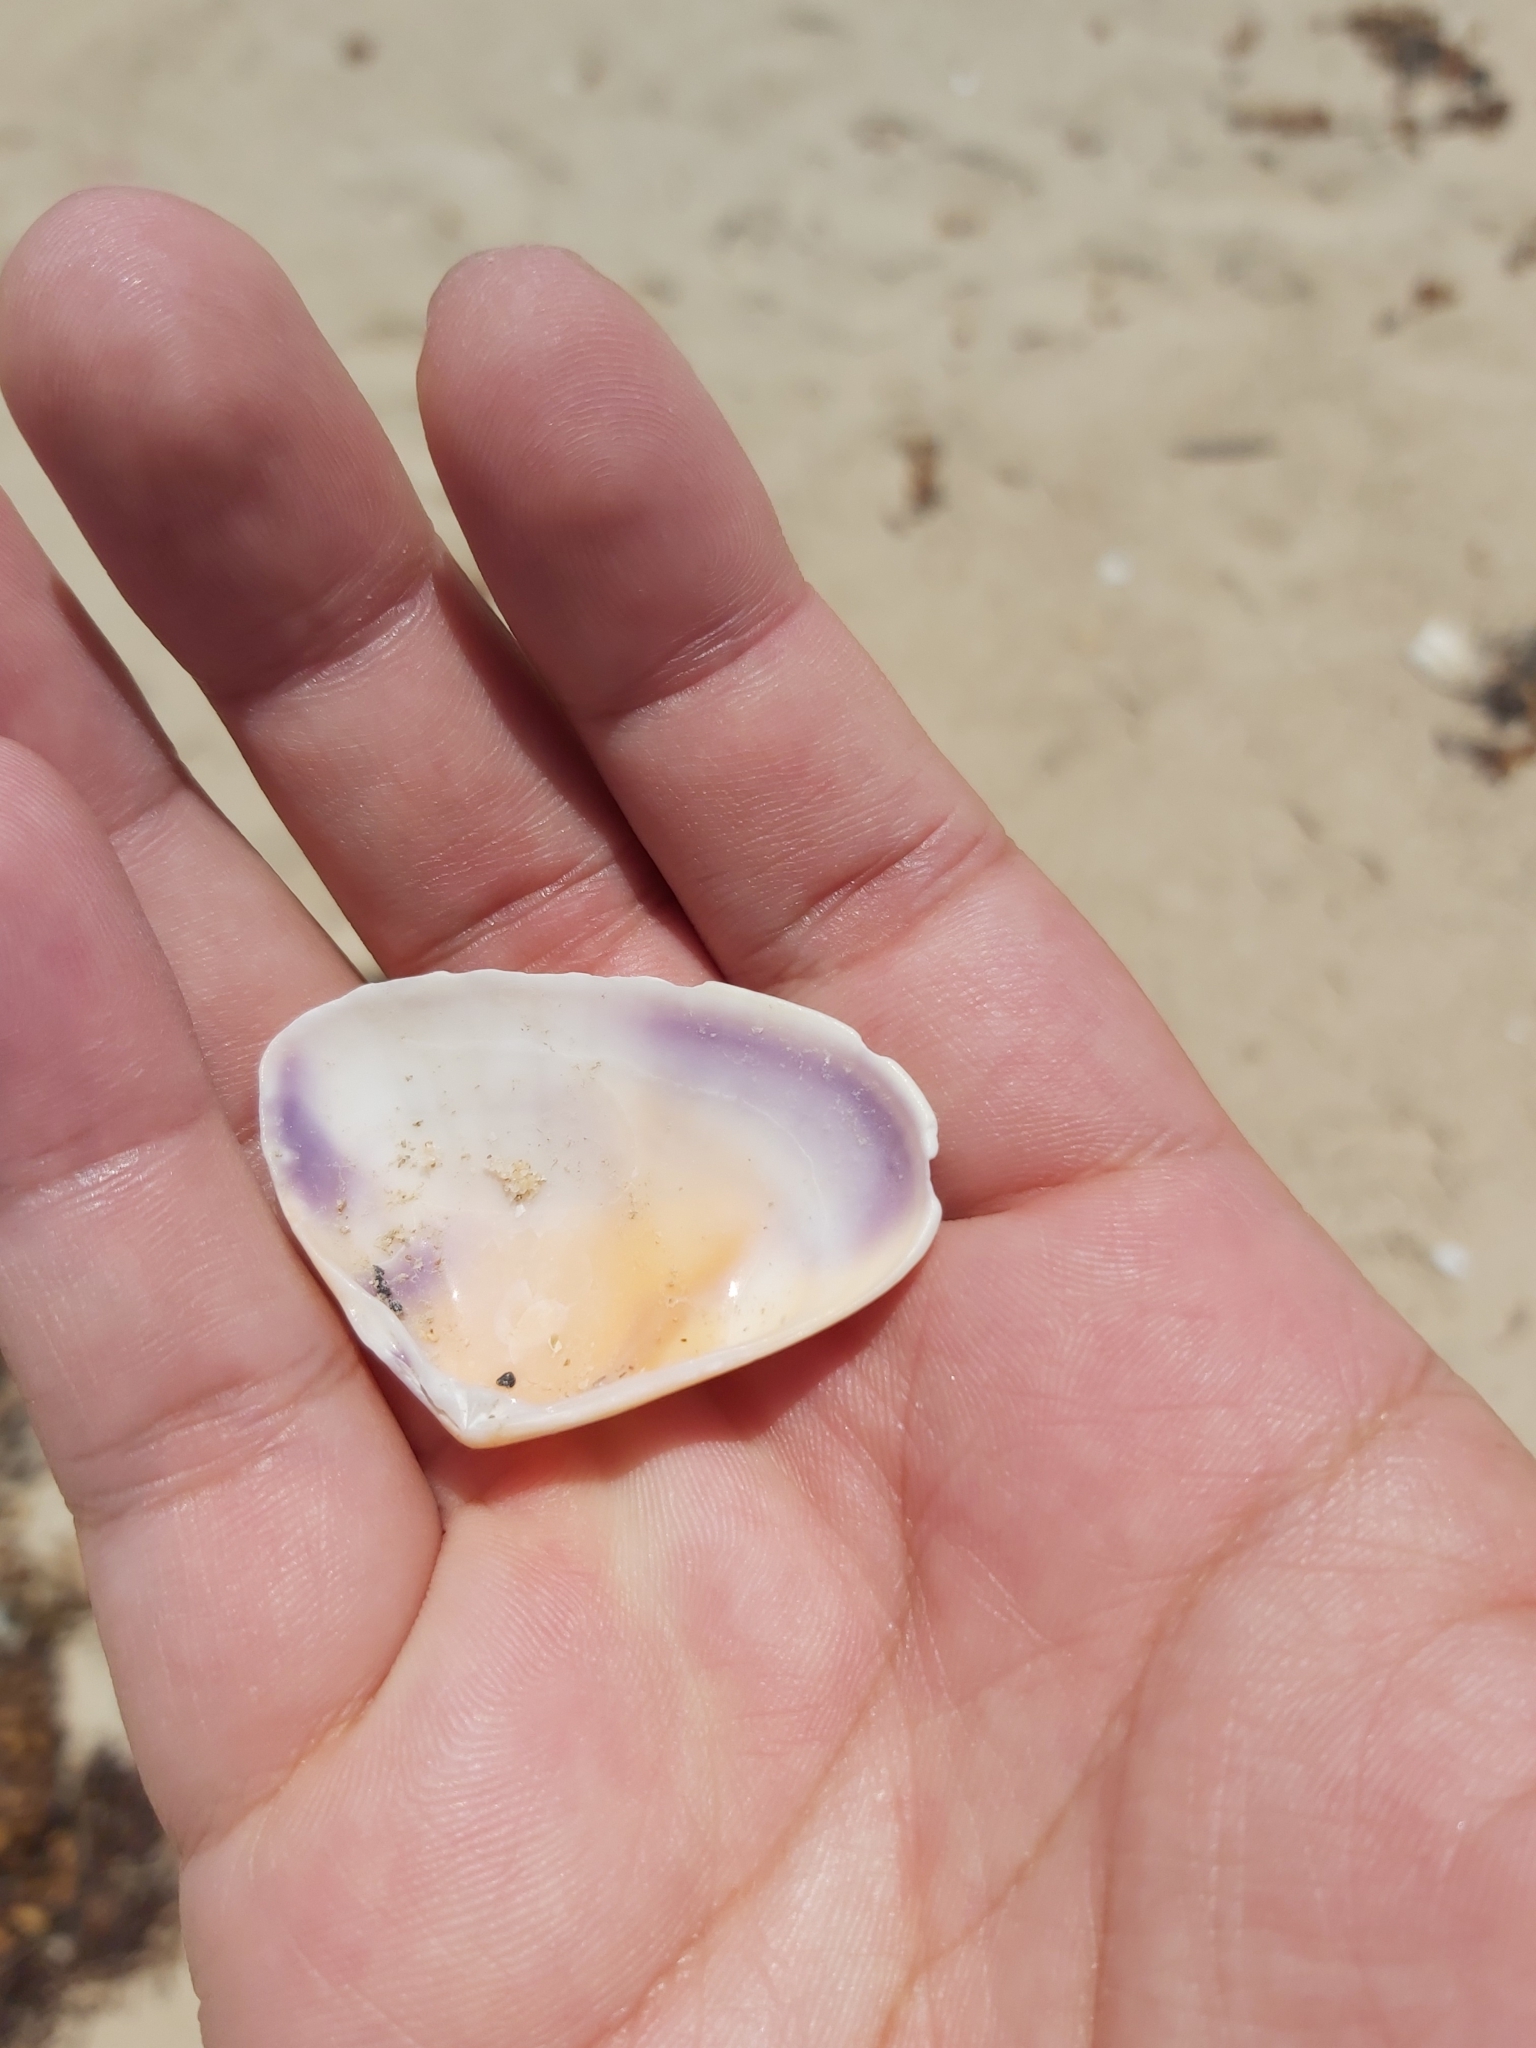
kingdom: Animalia
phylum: Mollusca
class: Bivalvia
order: Cardiida
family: Donacidae
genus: Latona
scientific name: Latona deltoides
